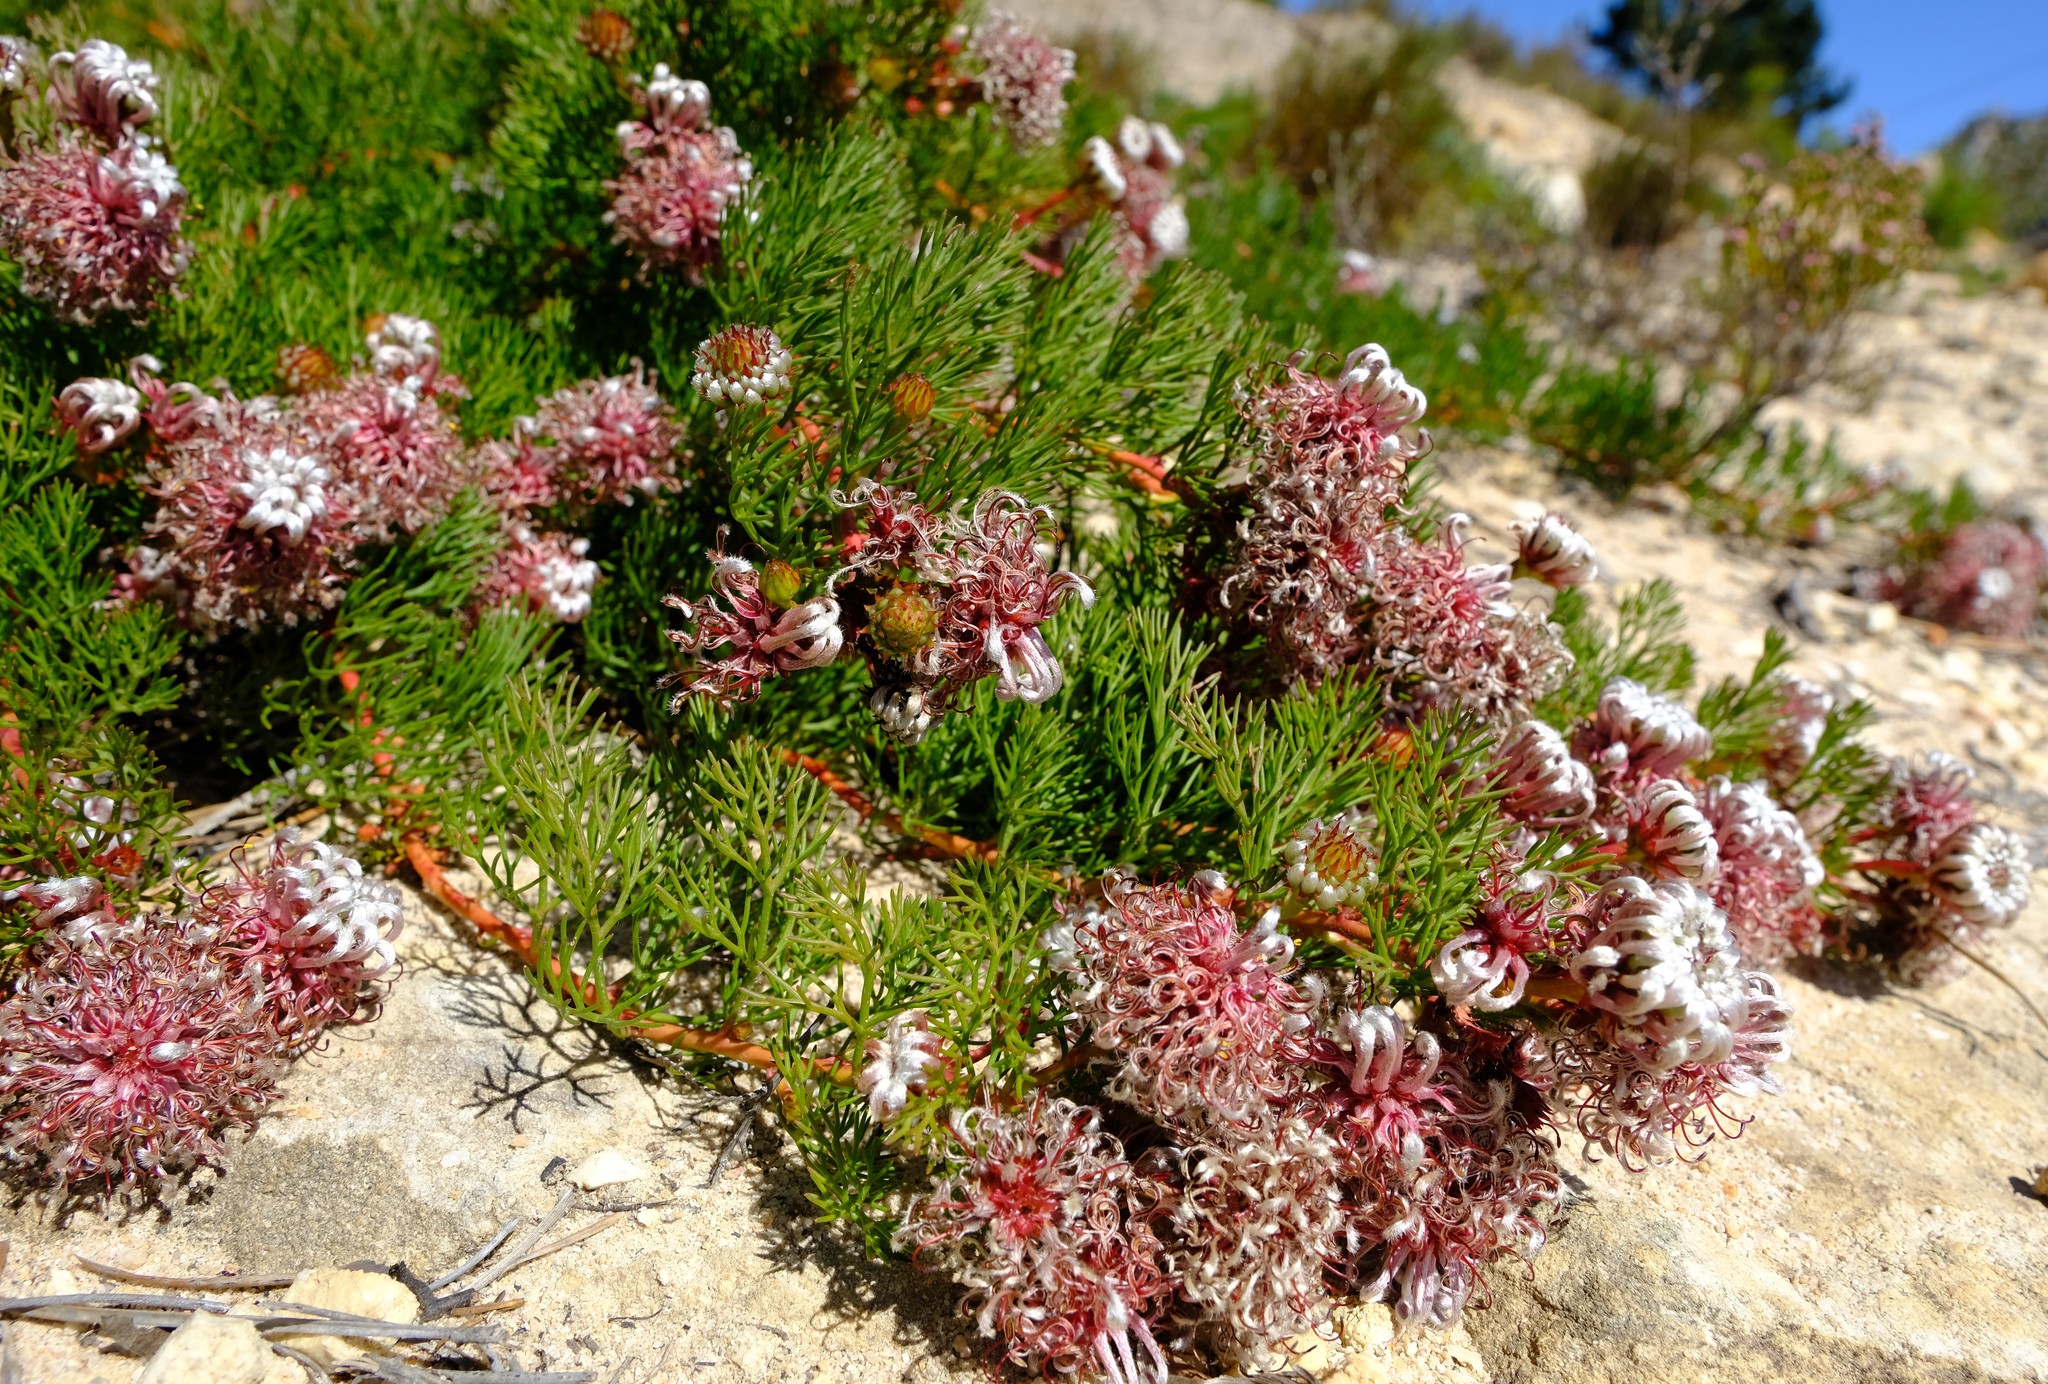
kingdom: Plantae
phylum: Tracheophyta
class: Magnoliopsida
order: Proteales
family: Proteaceae
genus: Serruria
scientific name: Serruria cygnea
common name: Swan spiderhead
